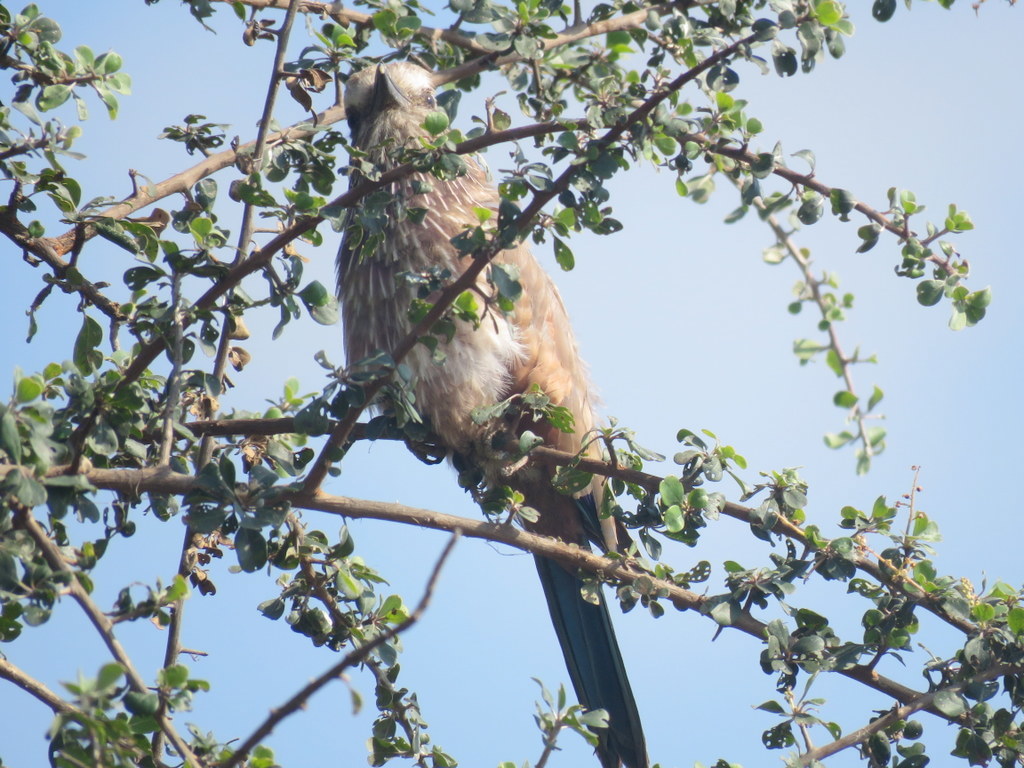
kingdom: Animalia
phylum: Chordata
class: Aves
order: Coraciiformes
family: Coraciidae
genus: Coracias
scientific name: Coracias naevius
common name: Purple roller
